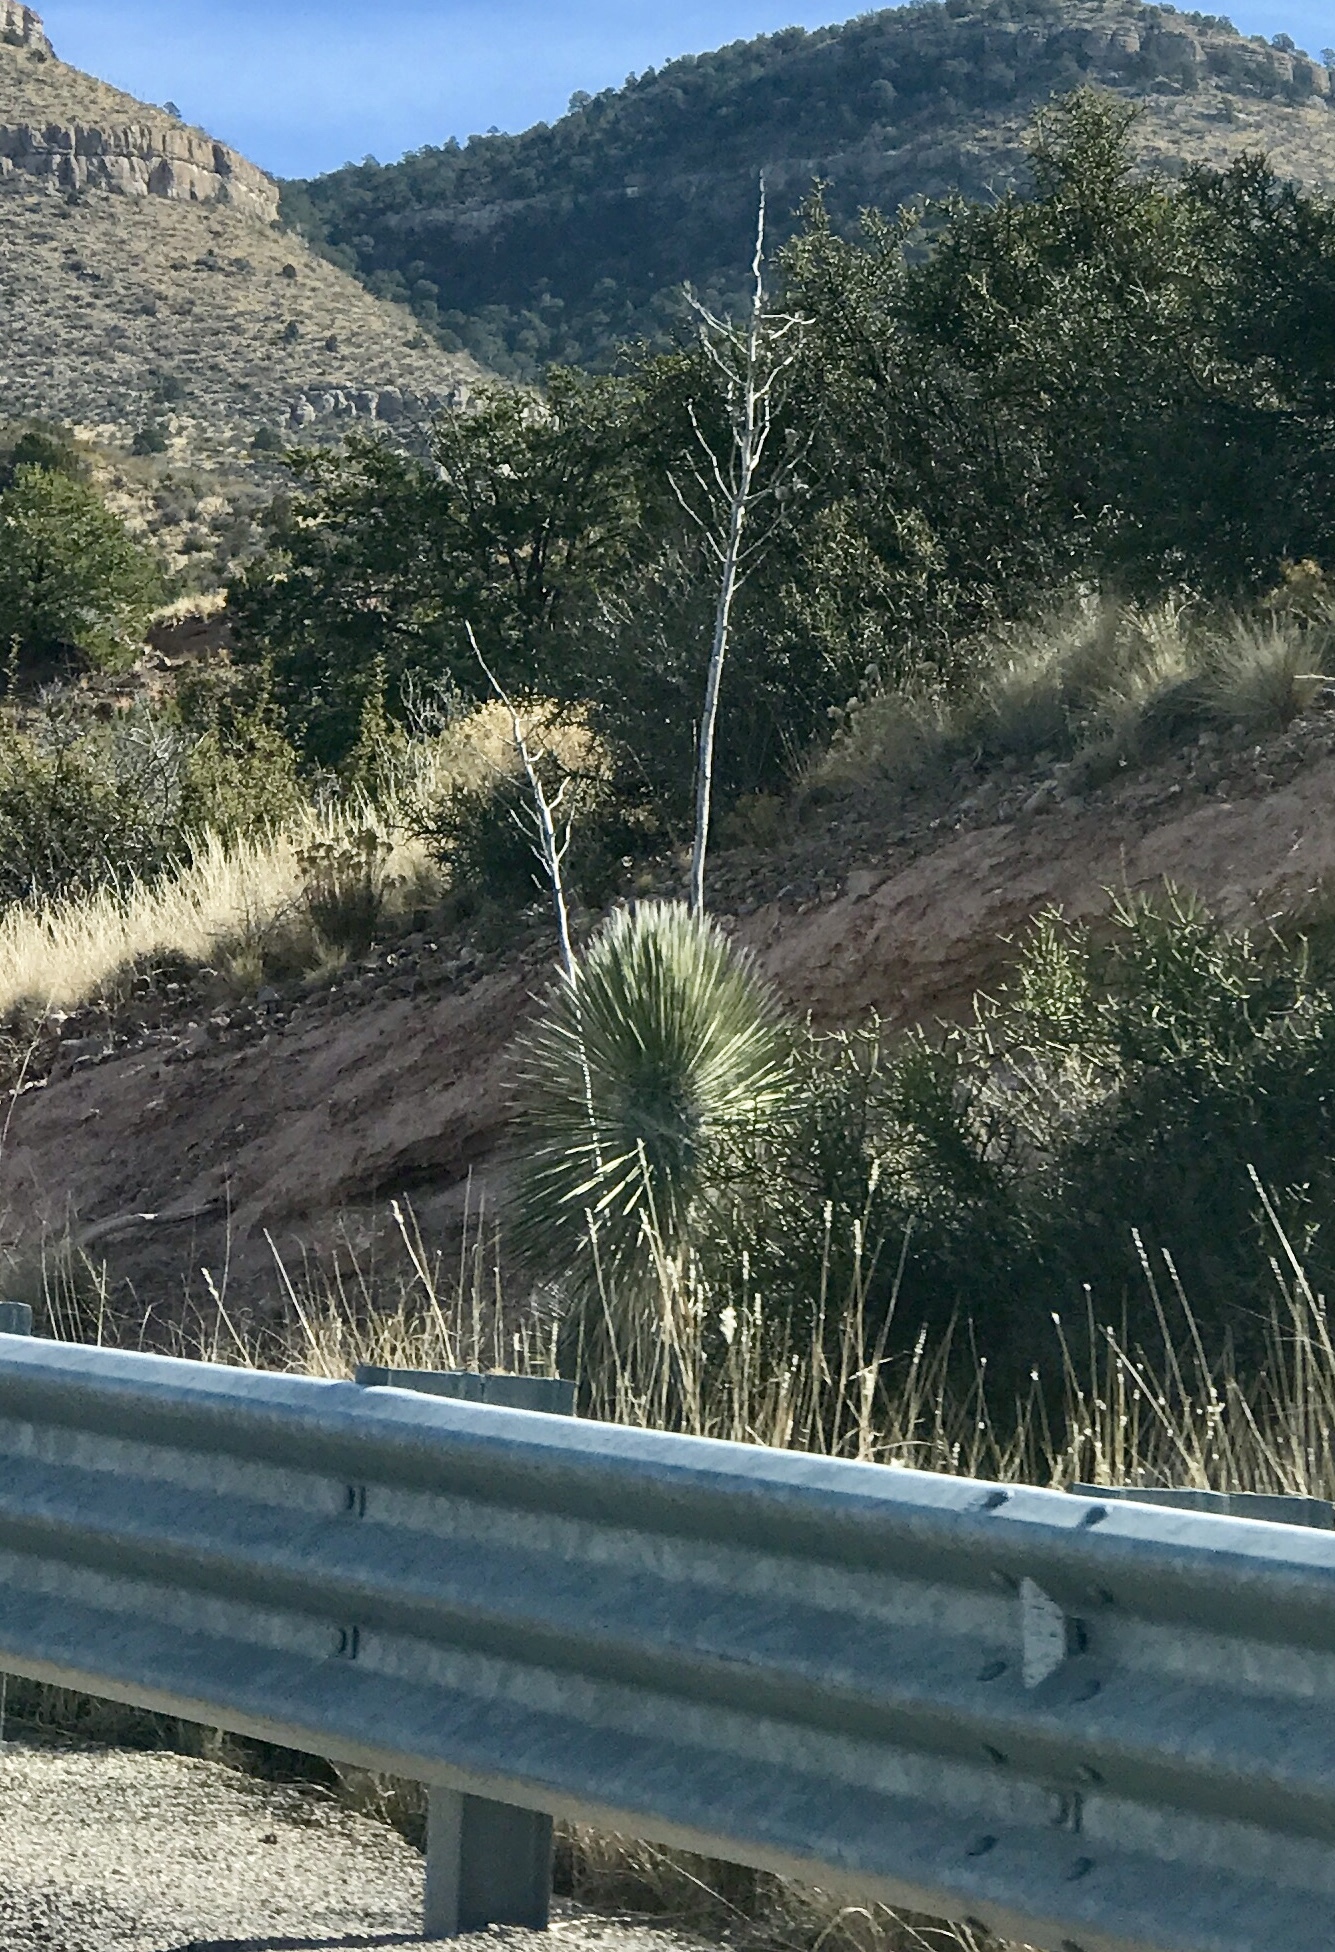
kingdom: Plantae
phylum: Tracheophyta
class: Liliopsida
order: Asparagales
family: Asparagaceae
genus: Yucca
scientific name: Yucca elata
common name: Palmella
